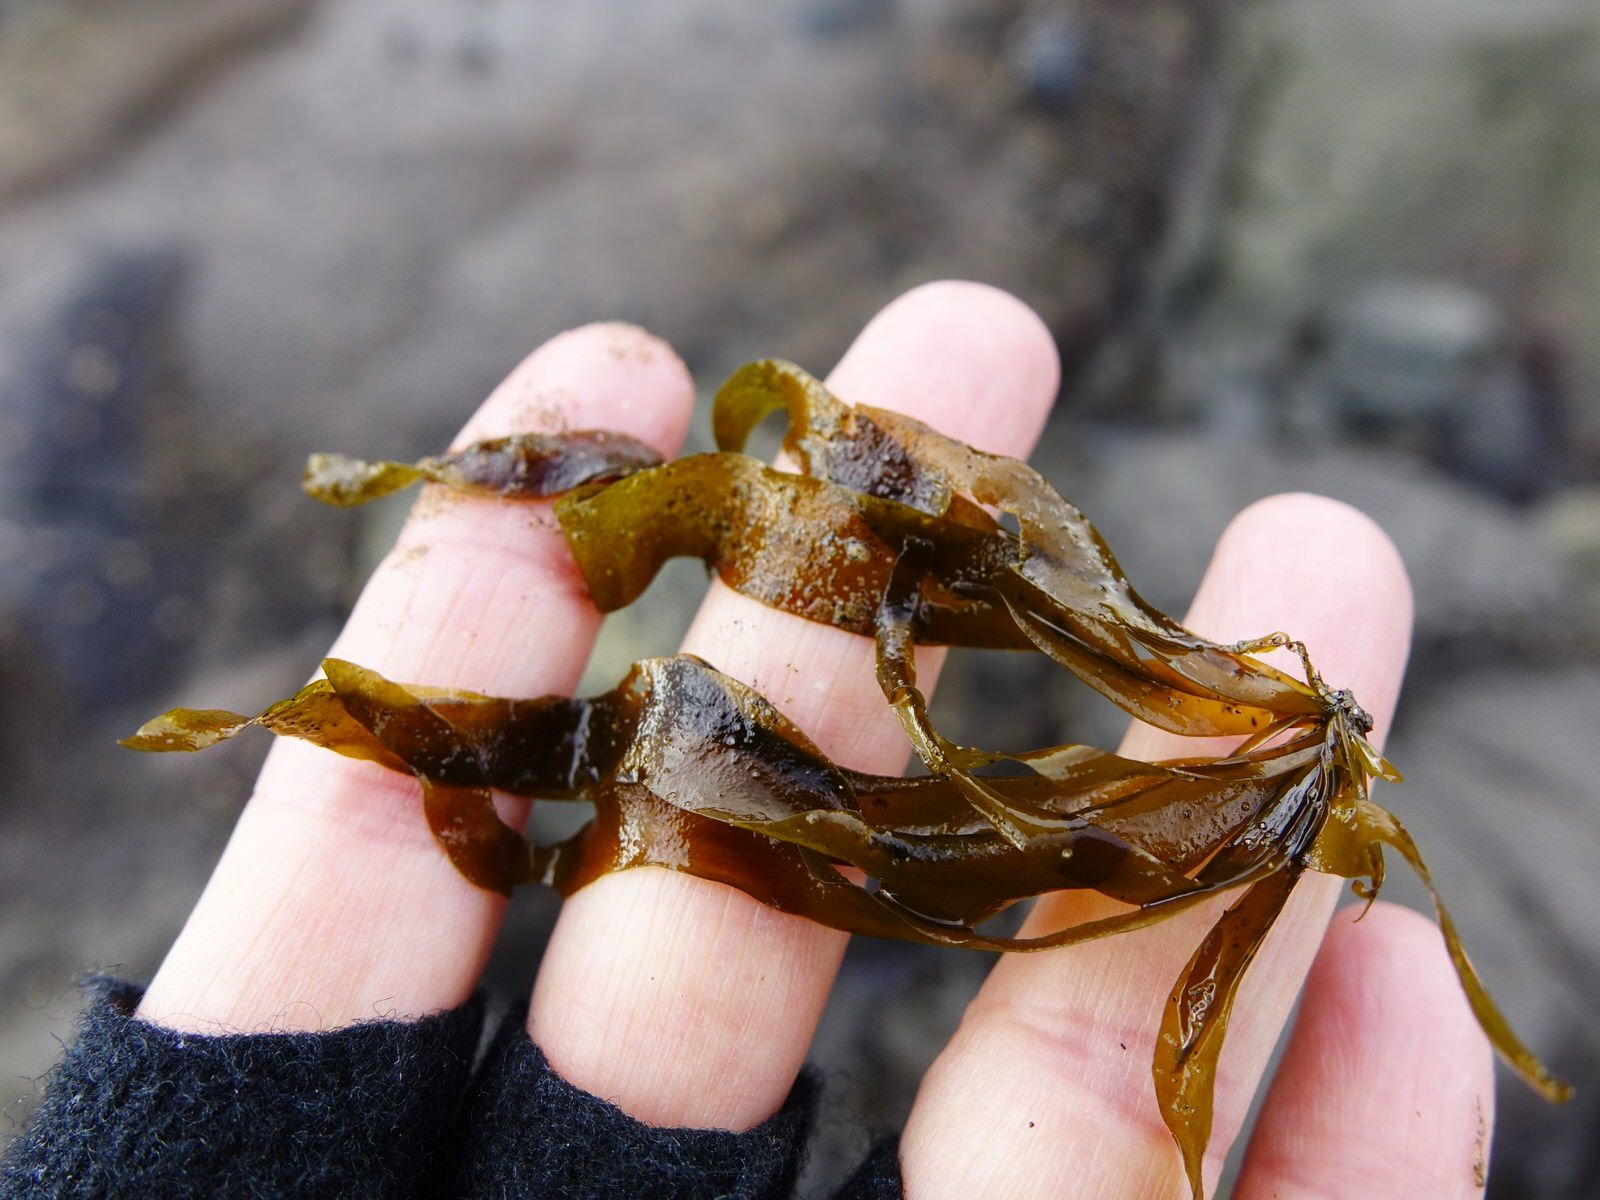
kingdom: Chromista
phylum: Ochrophyta
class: Phaeophyceae
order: Scytosiphonales
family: Scytosiphonaceae
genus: Petalonia
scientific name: Petalonia binghamiae
